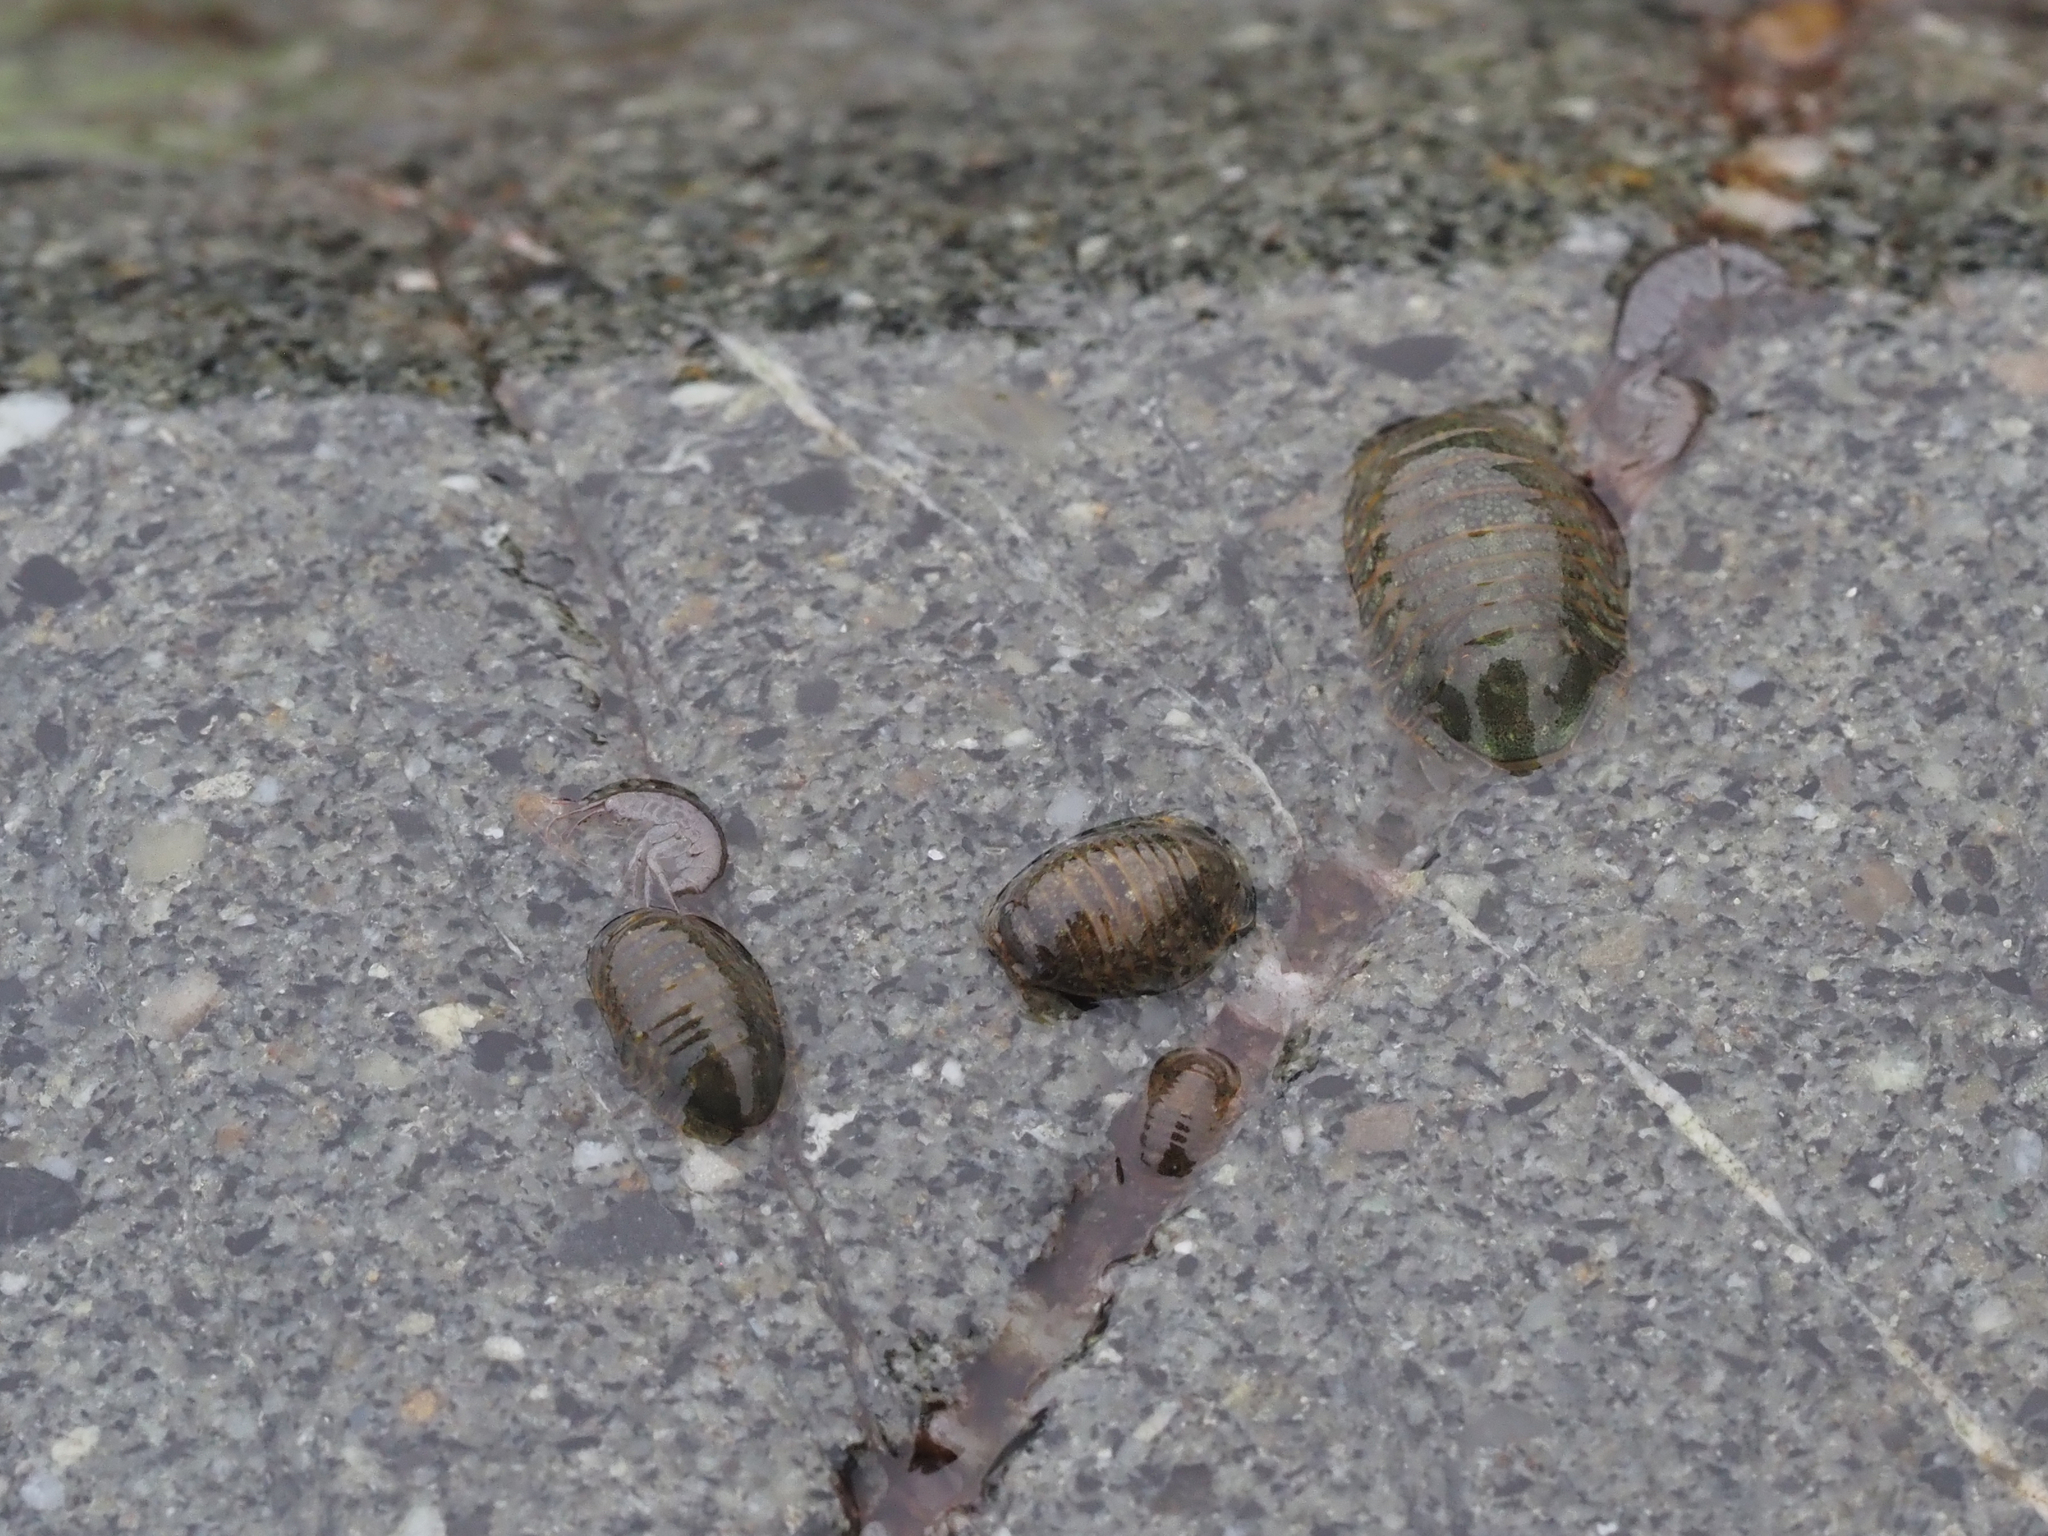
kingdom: Animalia
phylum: Arthropoda
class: Malacostraca
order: Isopoda
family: Sphaeromatidae
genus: Gnorimosphaeroma
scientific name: Gnorimosphaeroma oregonense
